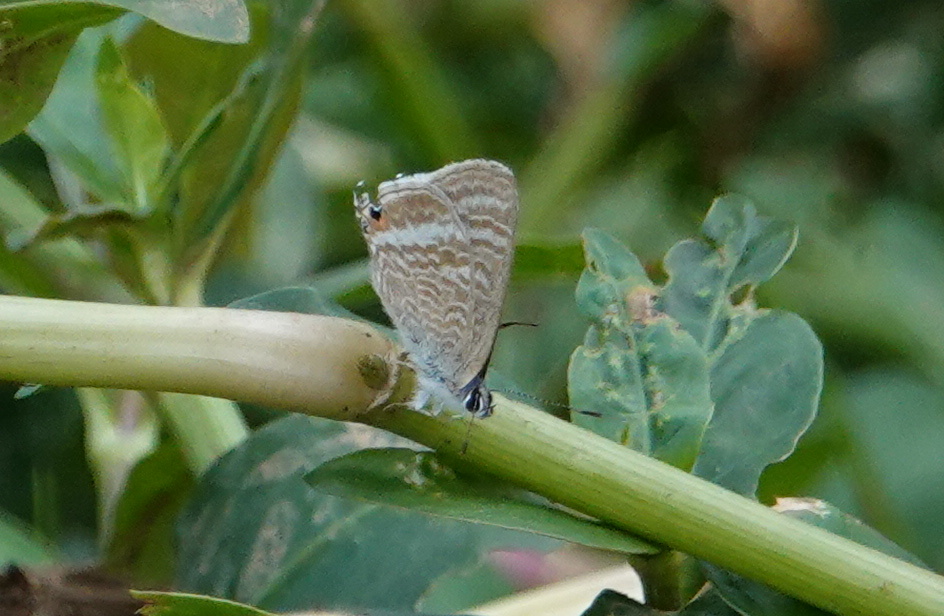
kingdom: Animalia
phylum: Arthropoda
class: Insecta
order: Lepidoptera
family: Lycaenidae
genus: Lampides
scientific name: Lampides boeticus
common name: Long-tailed blue
